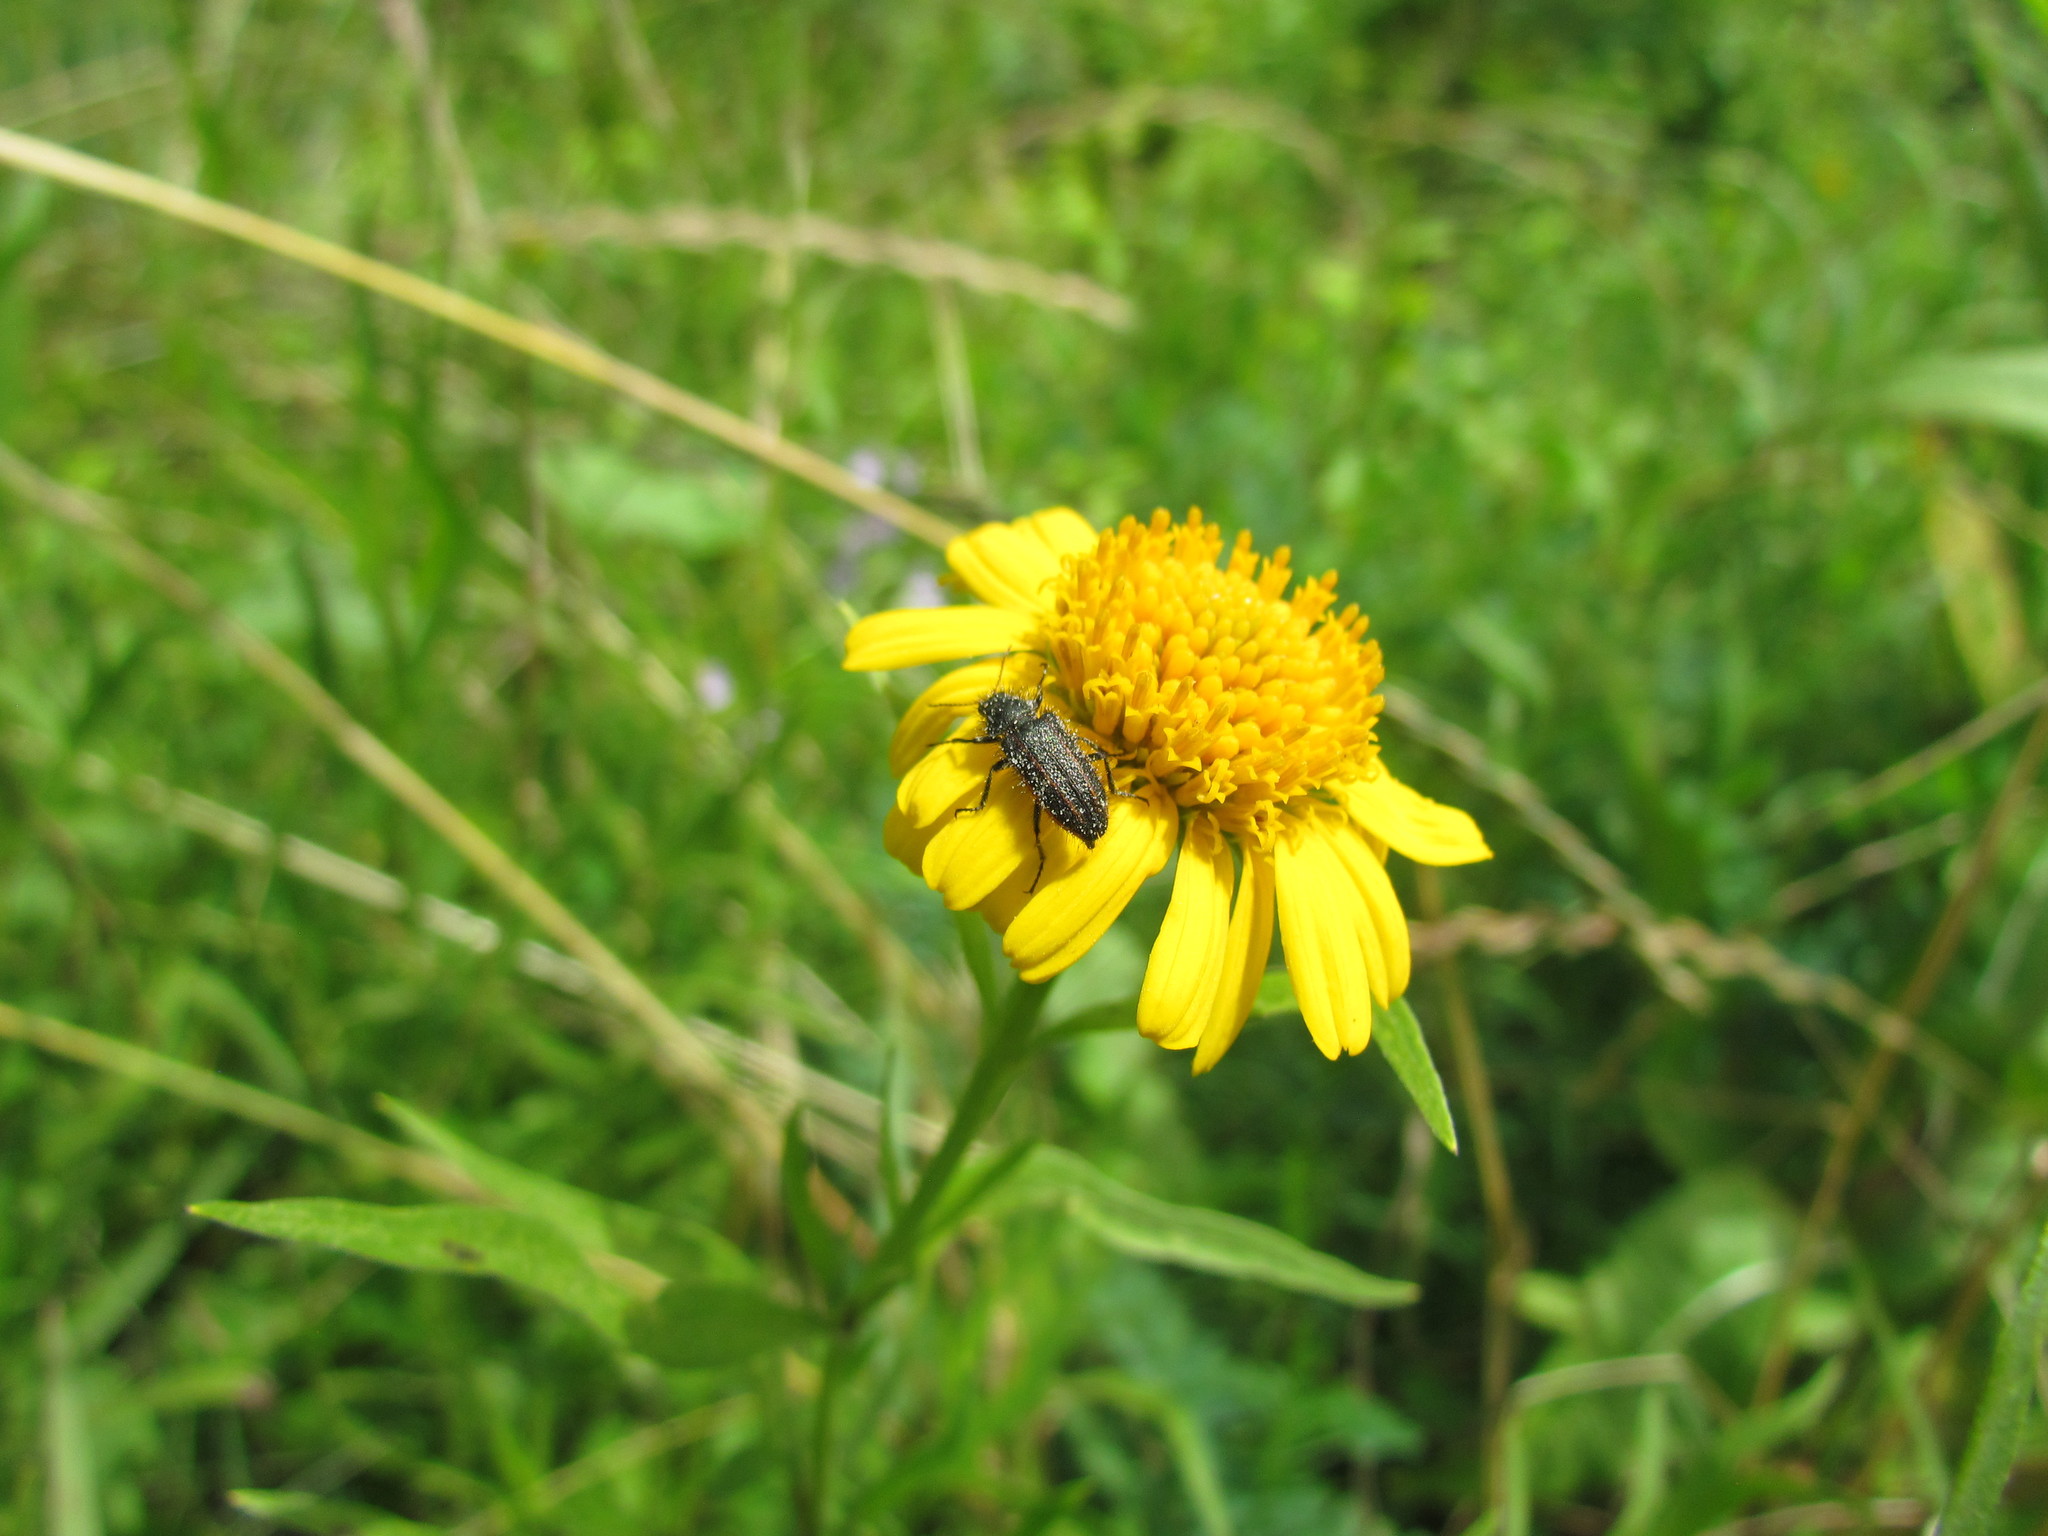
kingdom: Animalia
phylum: Arthropoda
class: Insecta
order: Coleoptera
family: Melyridae
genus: Astylus
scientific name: Astylus
